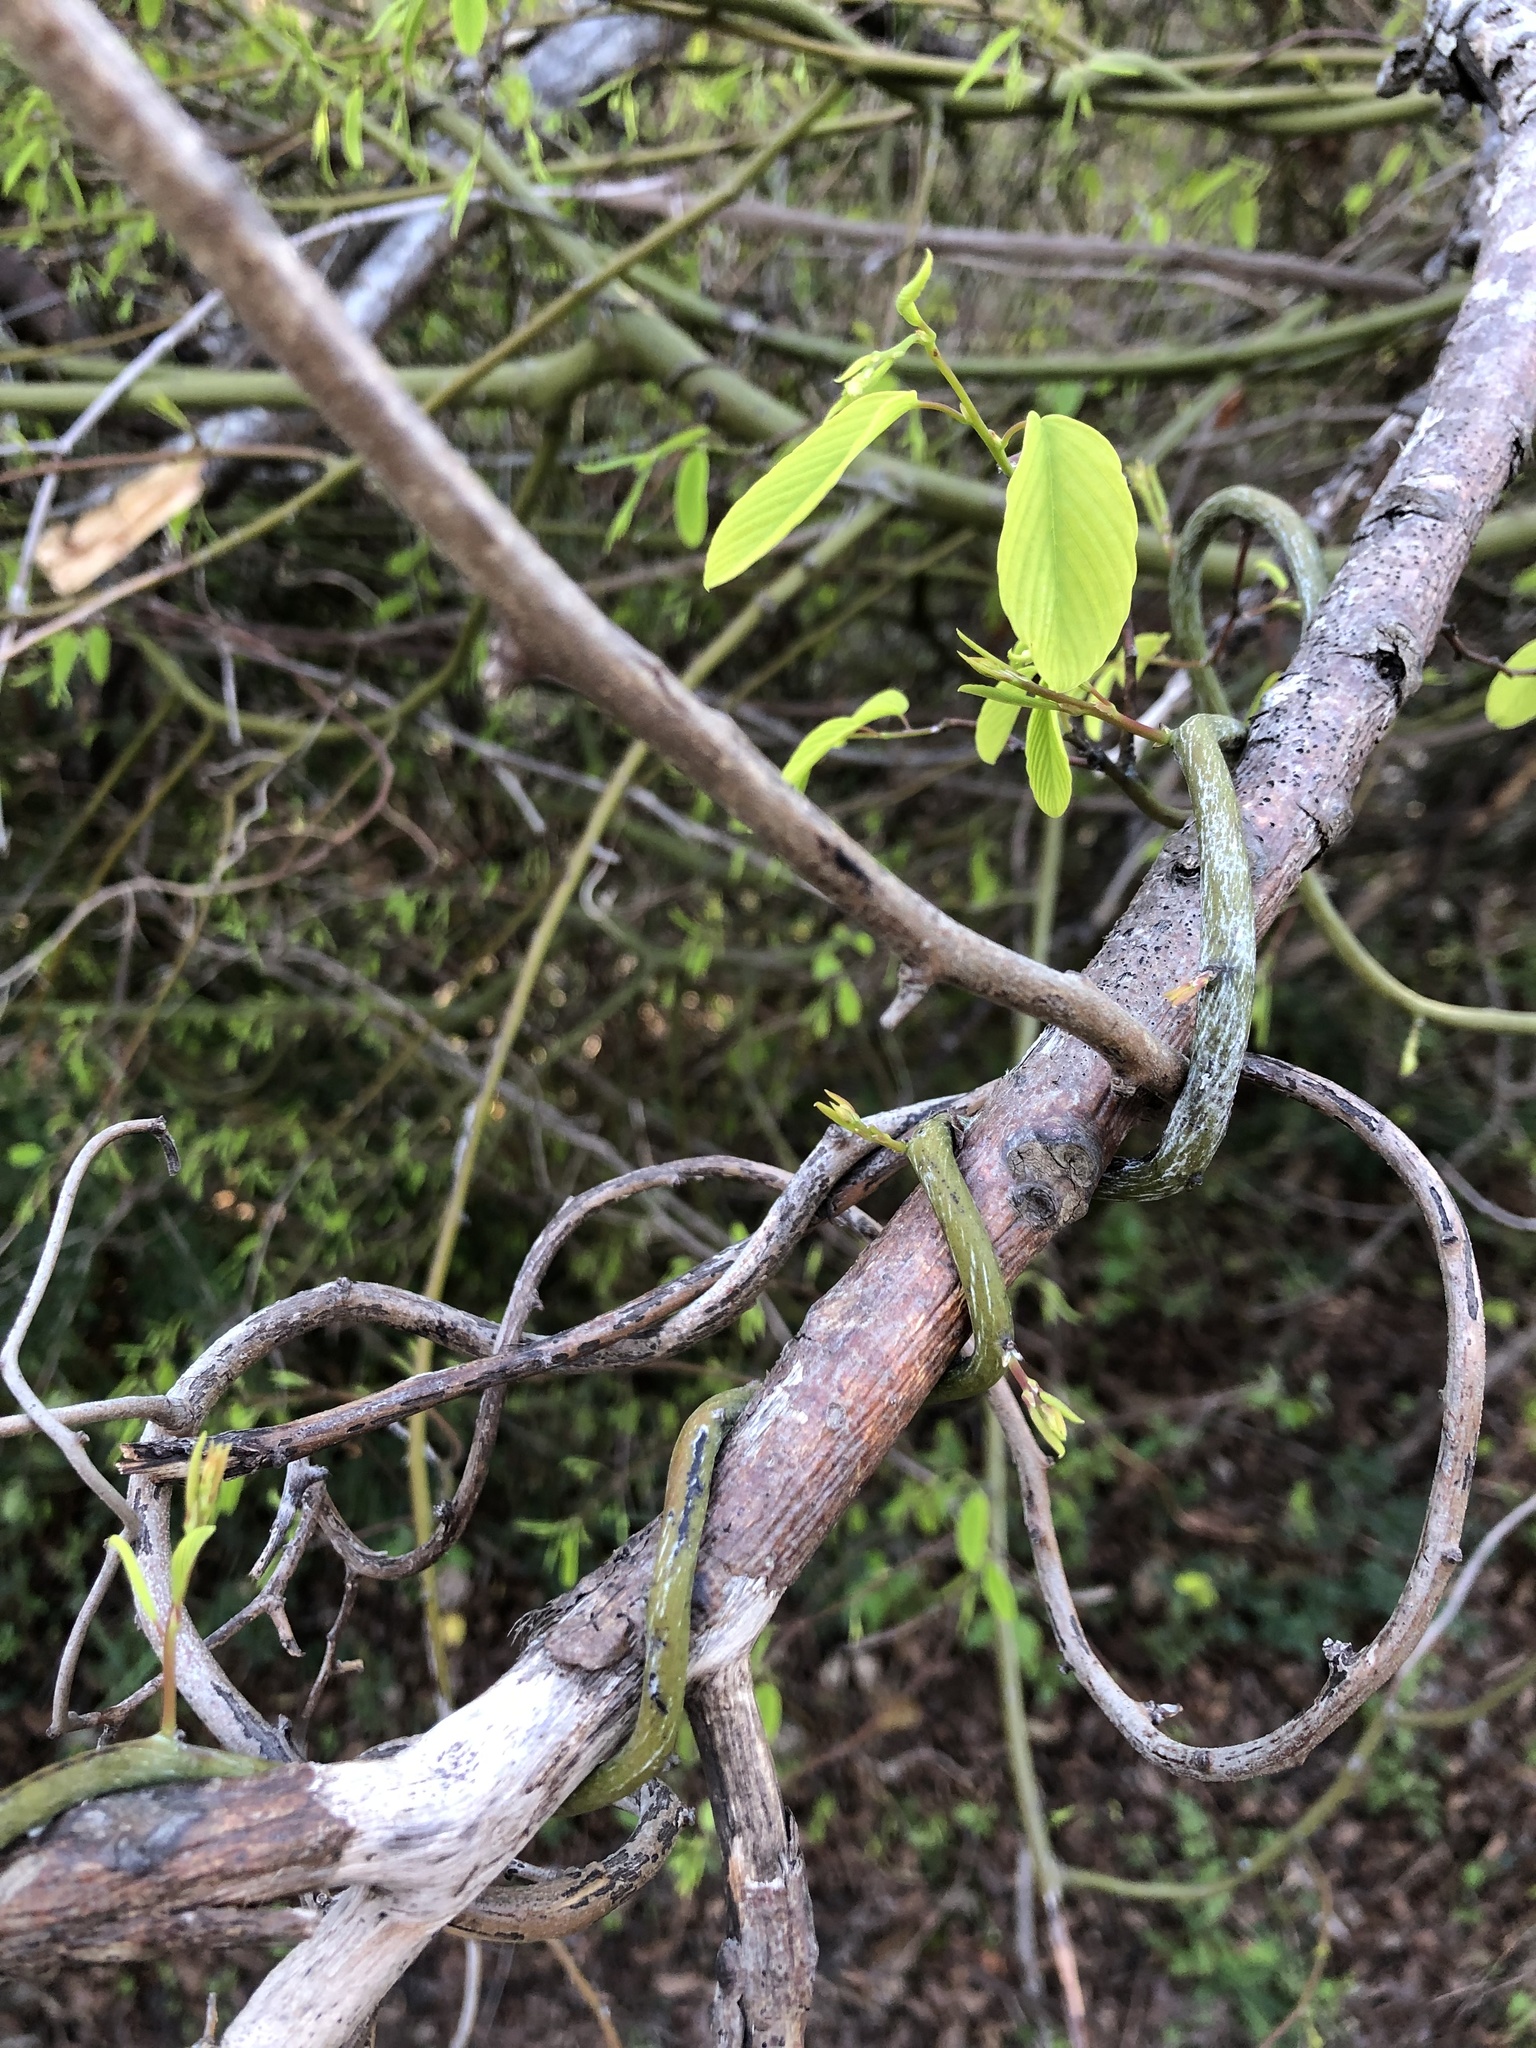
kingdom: Plantae
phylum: Tracheophyta
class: Magnoliopsida
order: Rosales
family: Rhamnaceae
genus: Berchemia
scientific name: Berchemia scandens
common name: Supplejack
